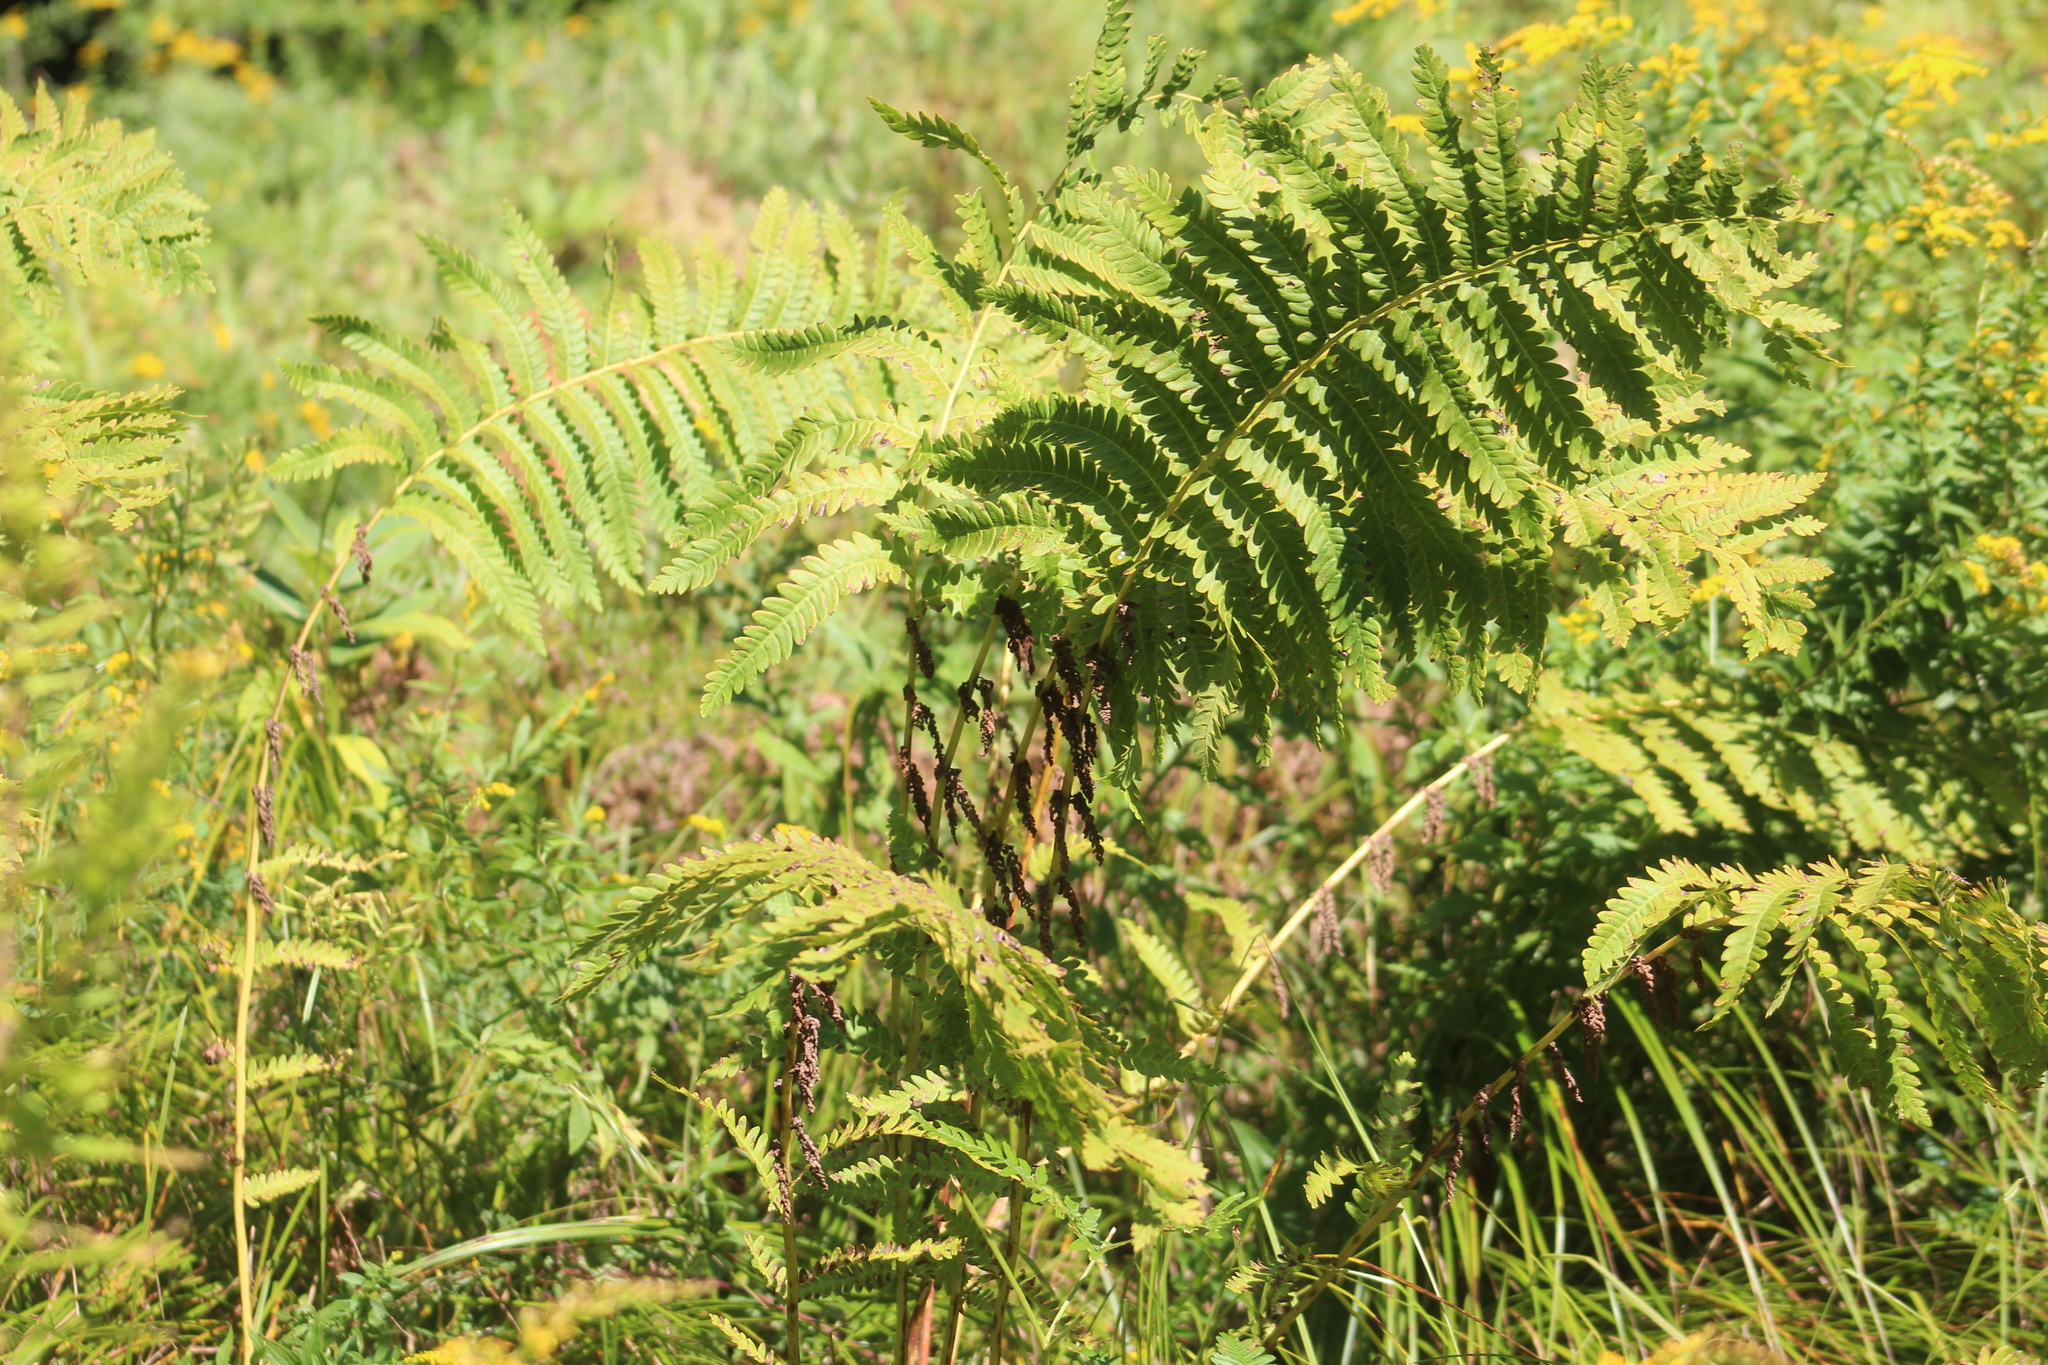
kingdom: Plantae
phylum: Tracheophyta
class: Polypodiopsida
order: Osmundales
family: Osmundaceae
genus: Claytosmunda
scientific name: Claytosmunda claytoniana
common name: Clayton's fern
